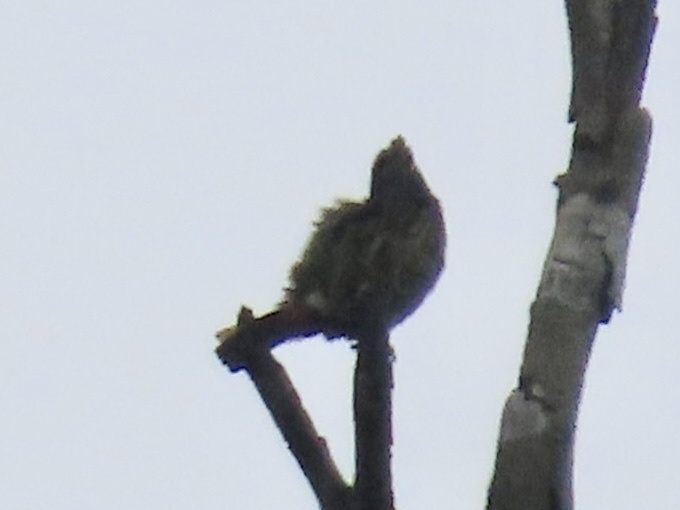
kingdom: Animalia
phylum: Chordata
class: Aves
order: Piciformes
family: Megalaimidae
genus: Psilopogon
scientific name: Psilopogon virens
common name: Great barbet
